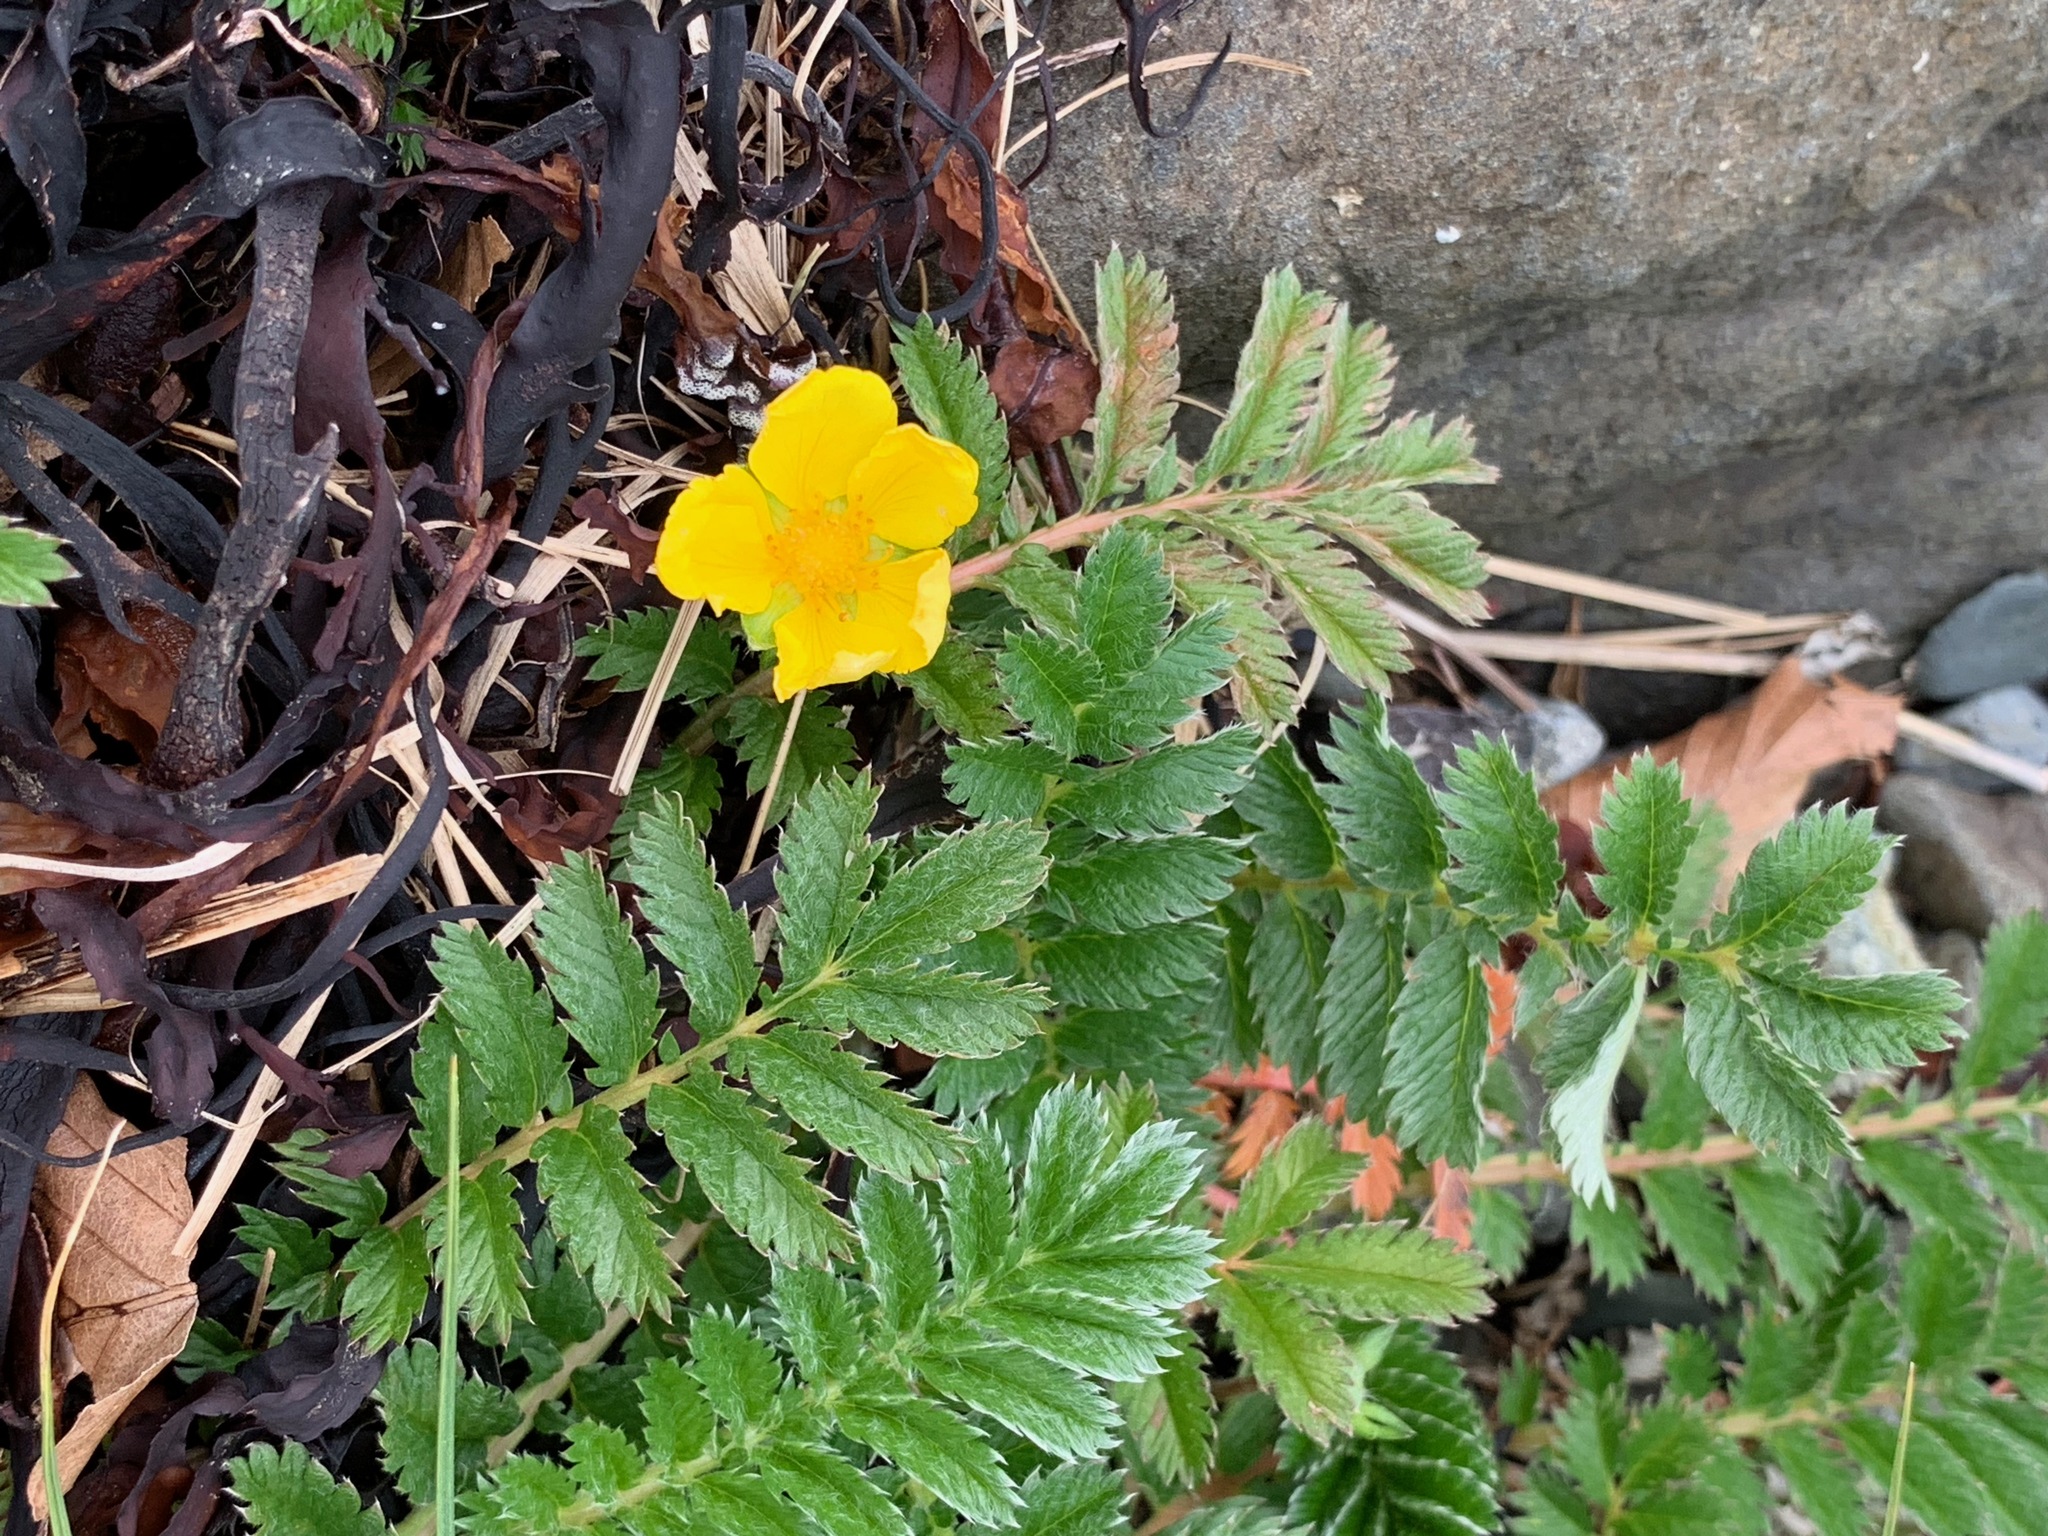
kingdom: Plantae
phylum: Tracheophyta
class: Magnoliopsida
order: Rosales
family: Rosaceae
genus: Argentina
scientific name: Argentina anserina
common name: Common silverweed
